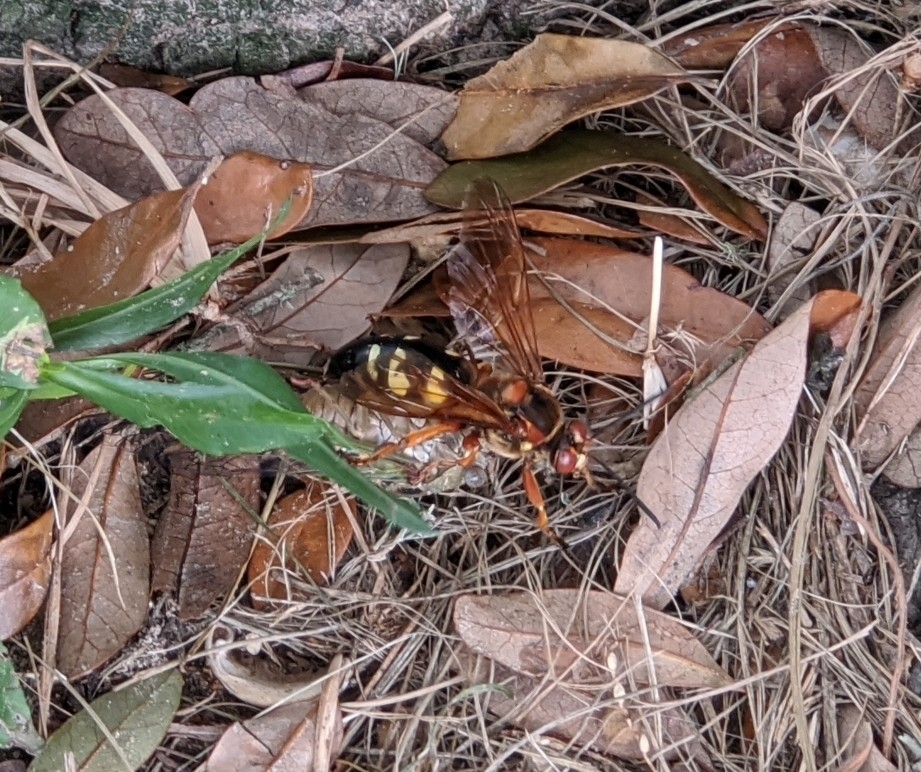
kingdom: Animalia
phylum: Arthropoda
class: Insecta
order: Hymenoptera
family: Crabronidae
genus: Sphecius
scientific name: Sphecius speciosus
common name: Cicada killer
